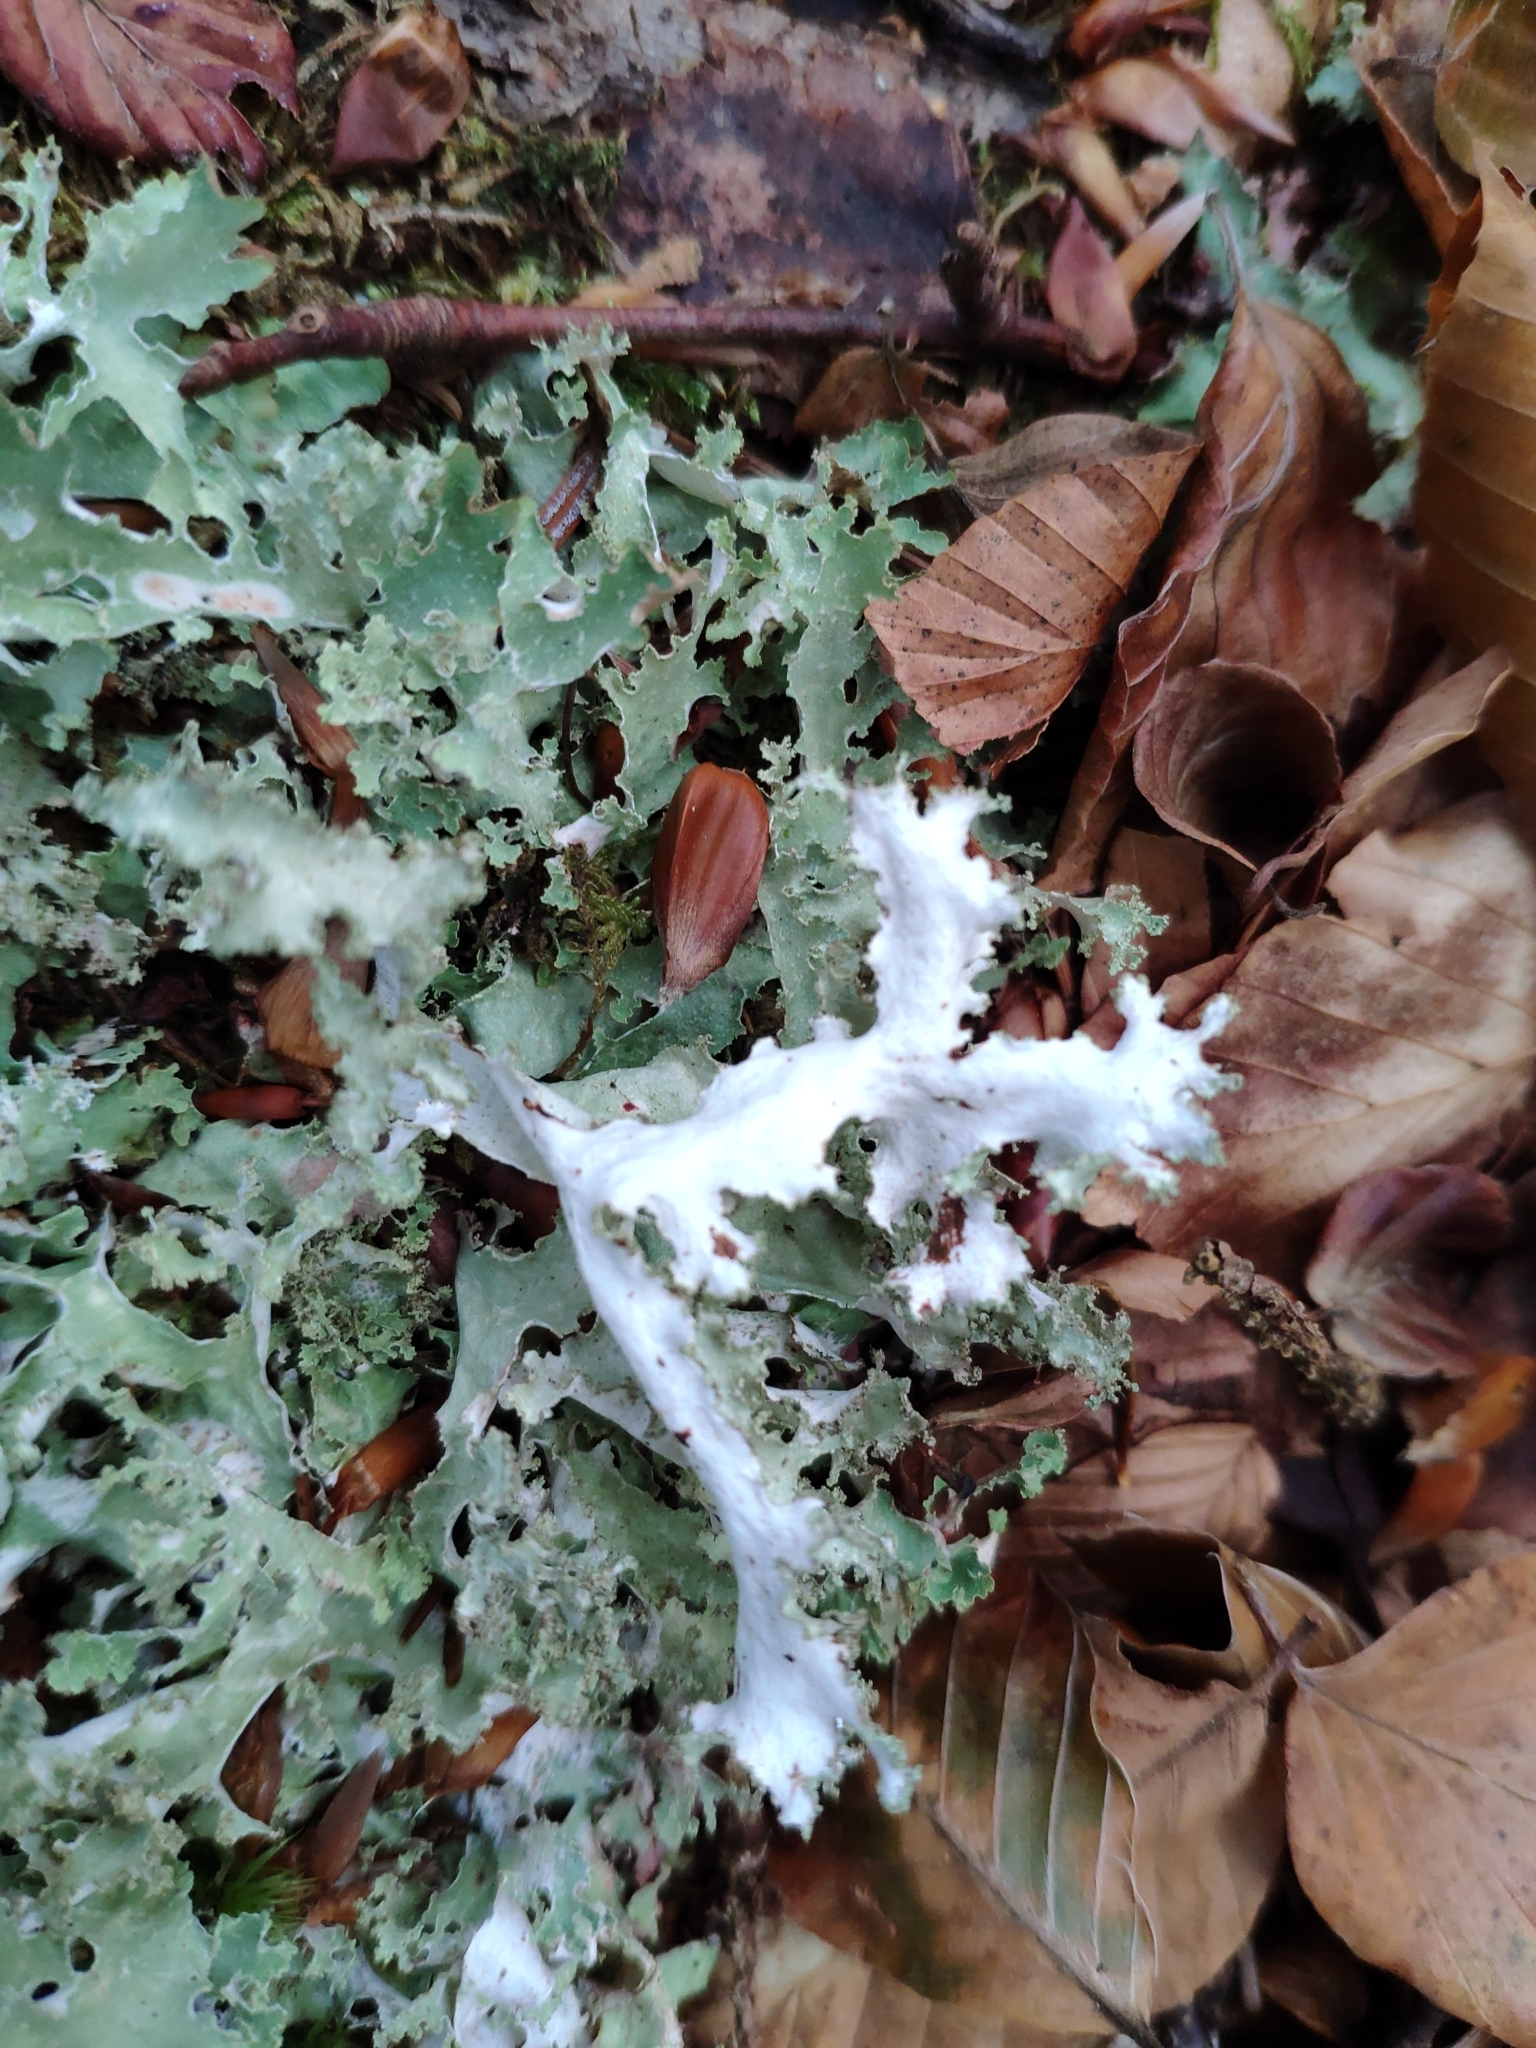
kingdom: Fungi
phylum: Ascomycota
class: Lecanoromycetes
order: Lecanorales
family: Parmeliaceae
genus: Platismatia
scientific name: Platismatia glauca
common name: Varied rag lichen
